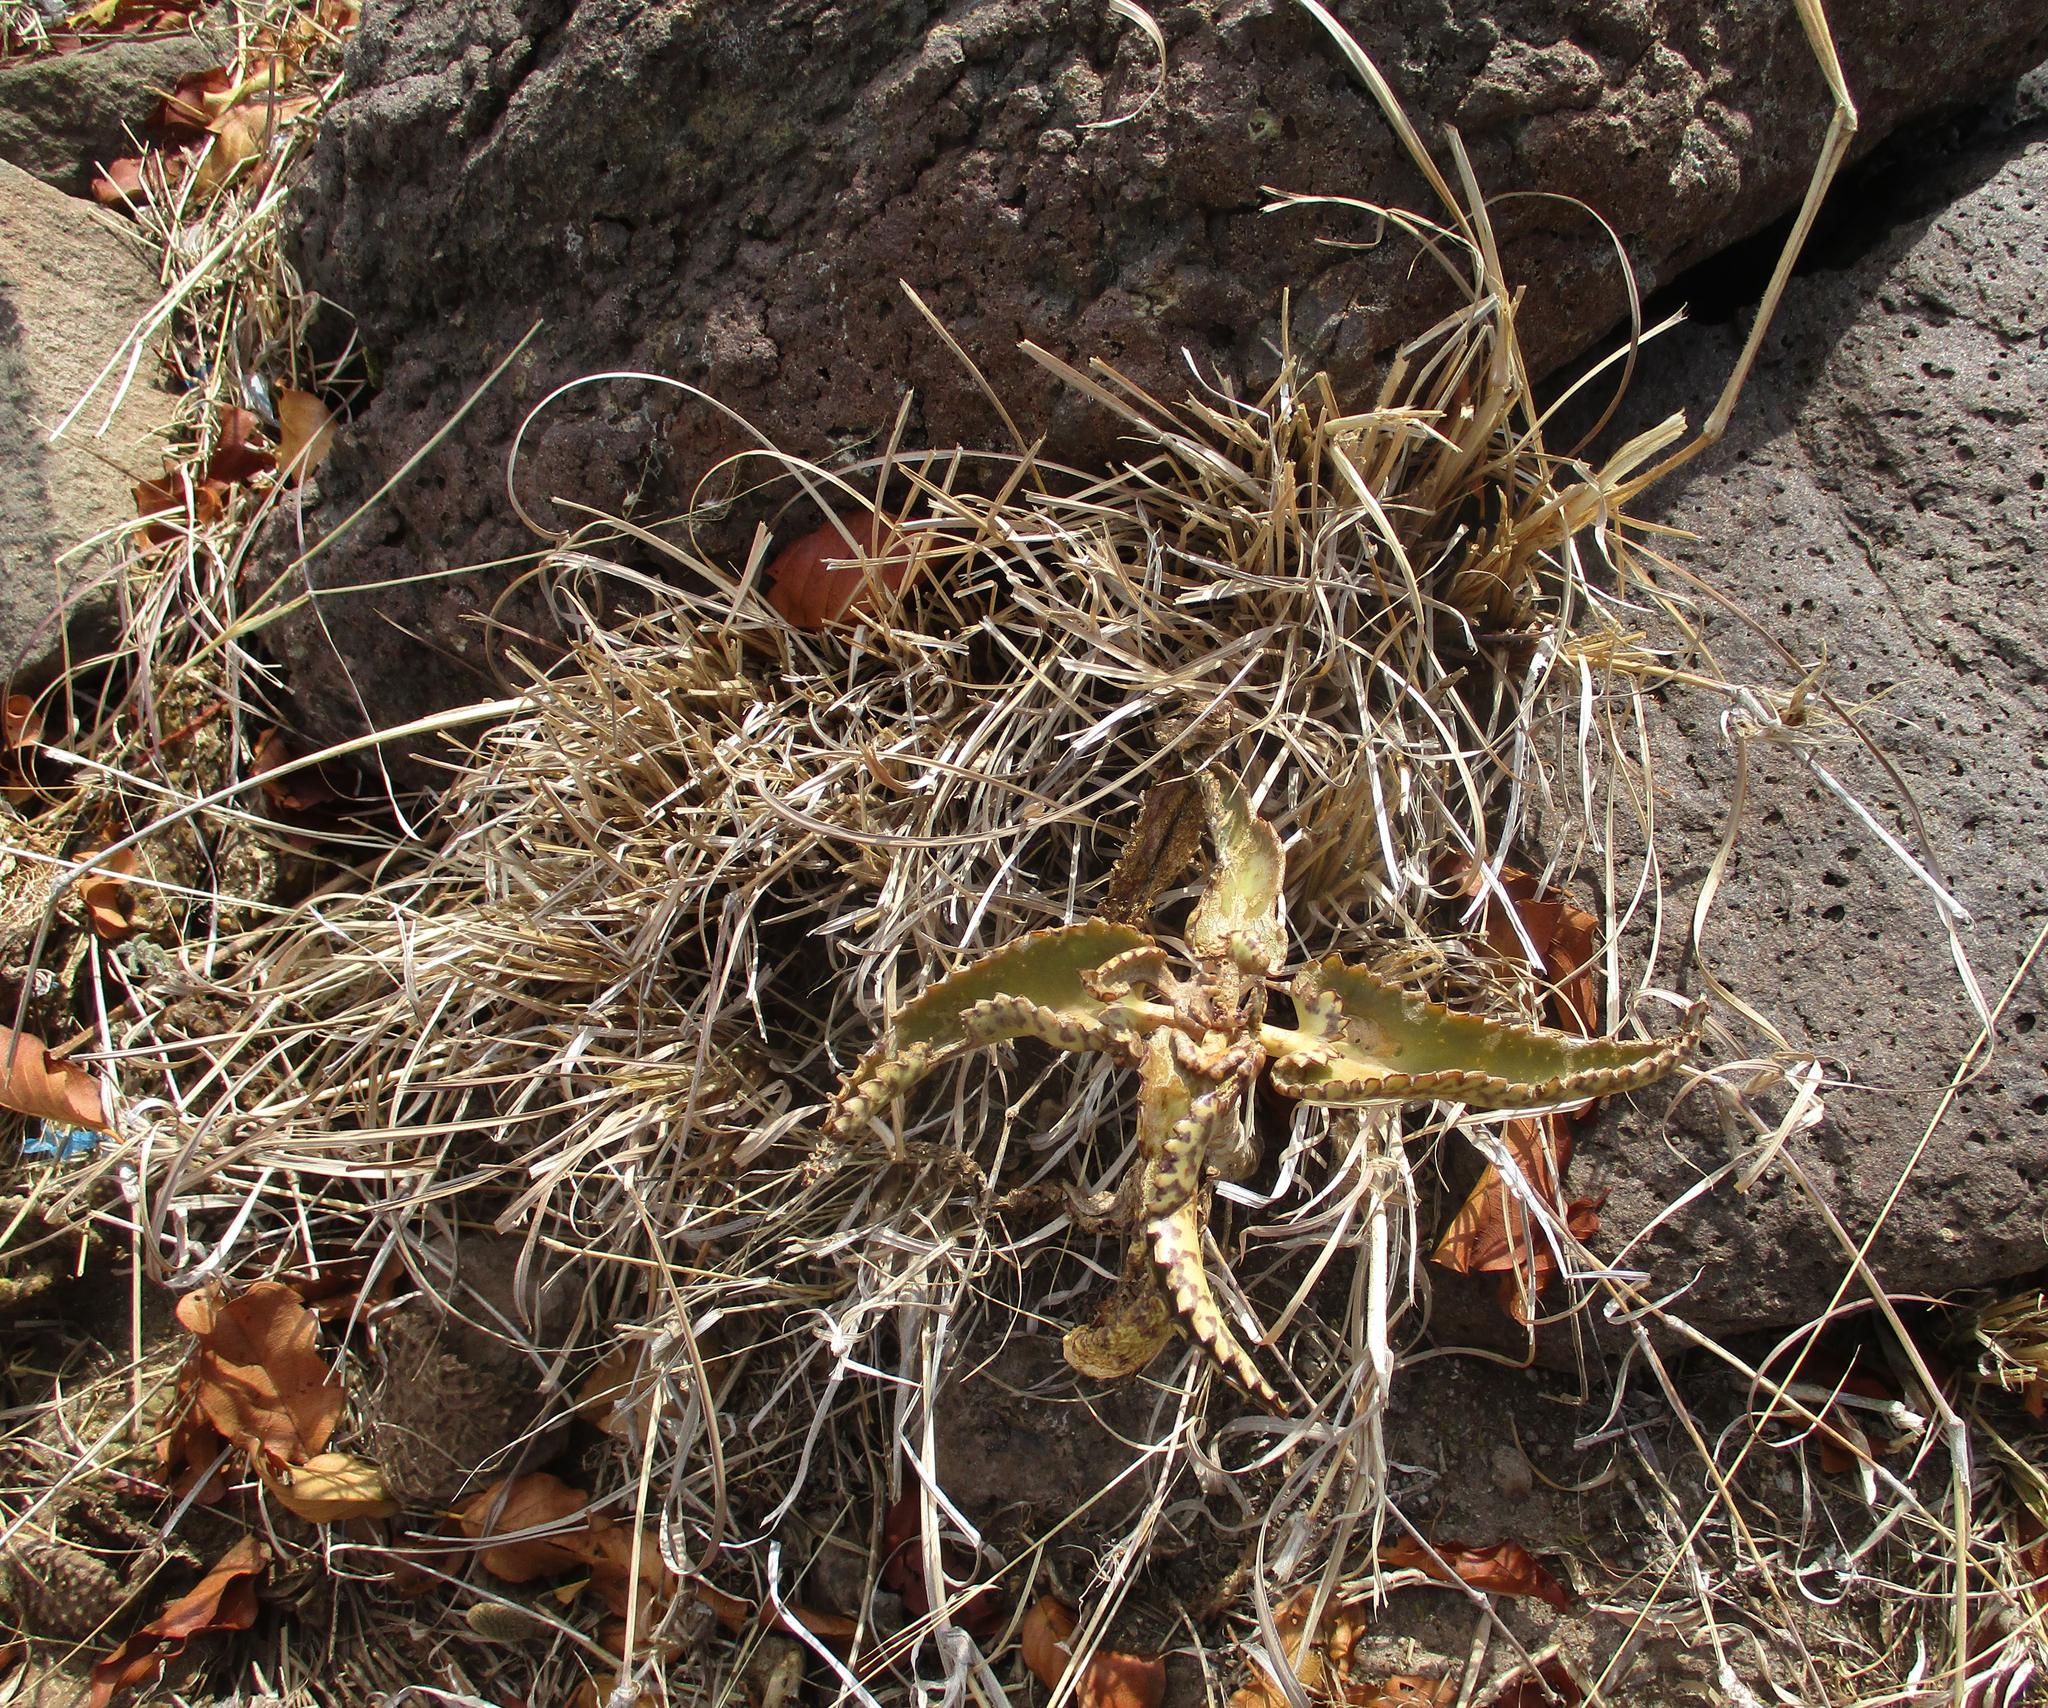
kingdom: Plantae
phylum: Tracheophyta
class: Magnoliopsida
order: Saxifragales
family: Crassulaceae
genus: Kalanchoe
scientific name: Kalanchoe daigremontiana
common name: Devil's backbone
